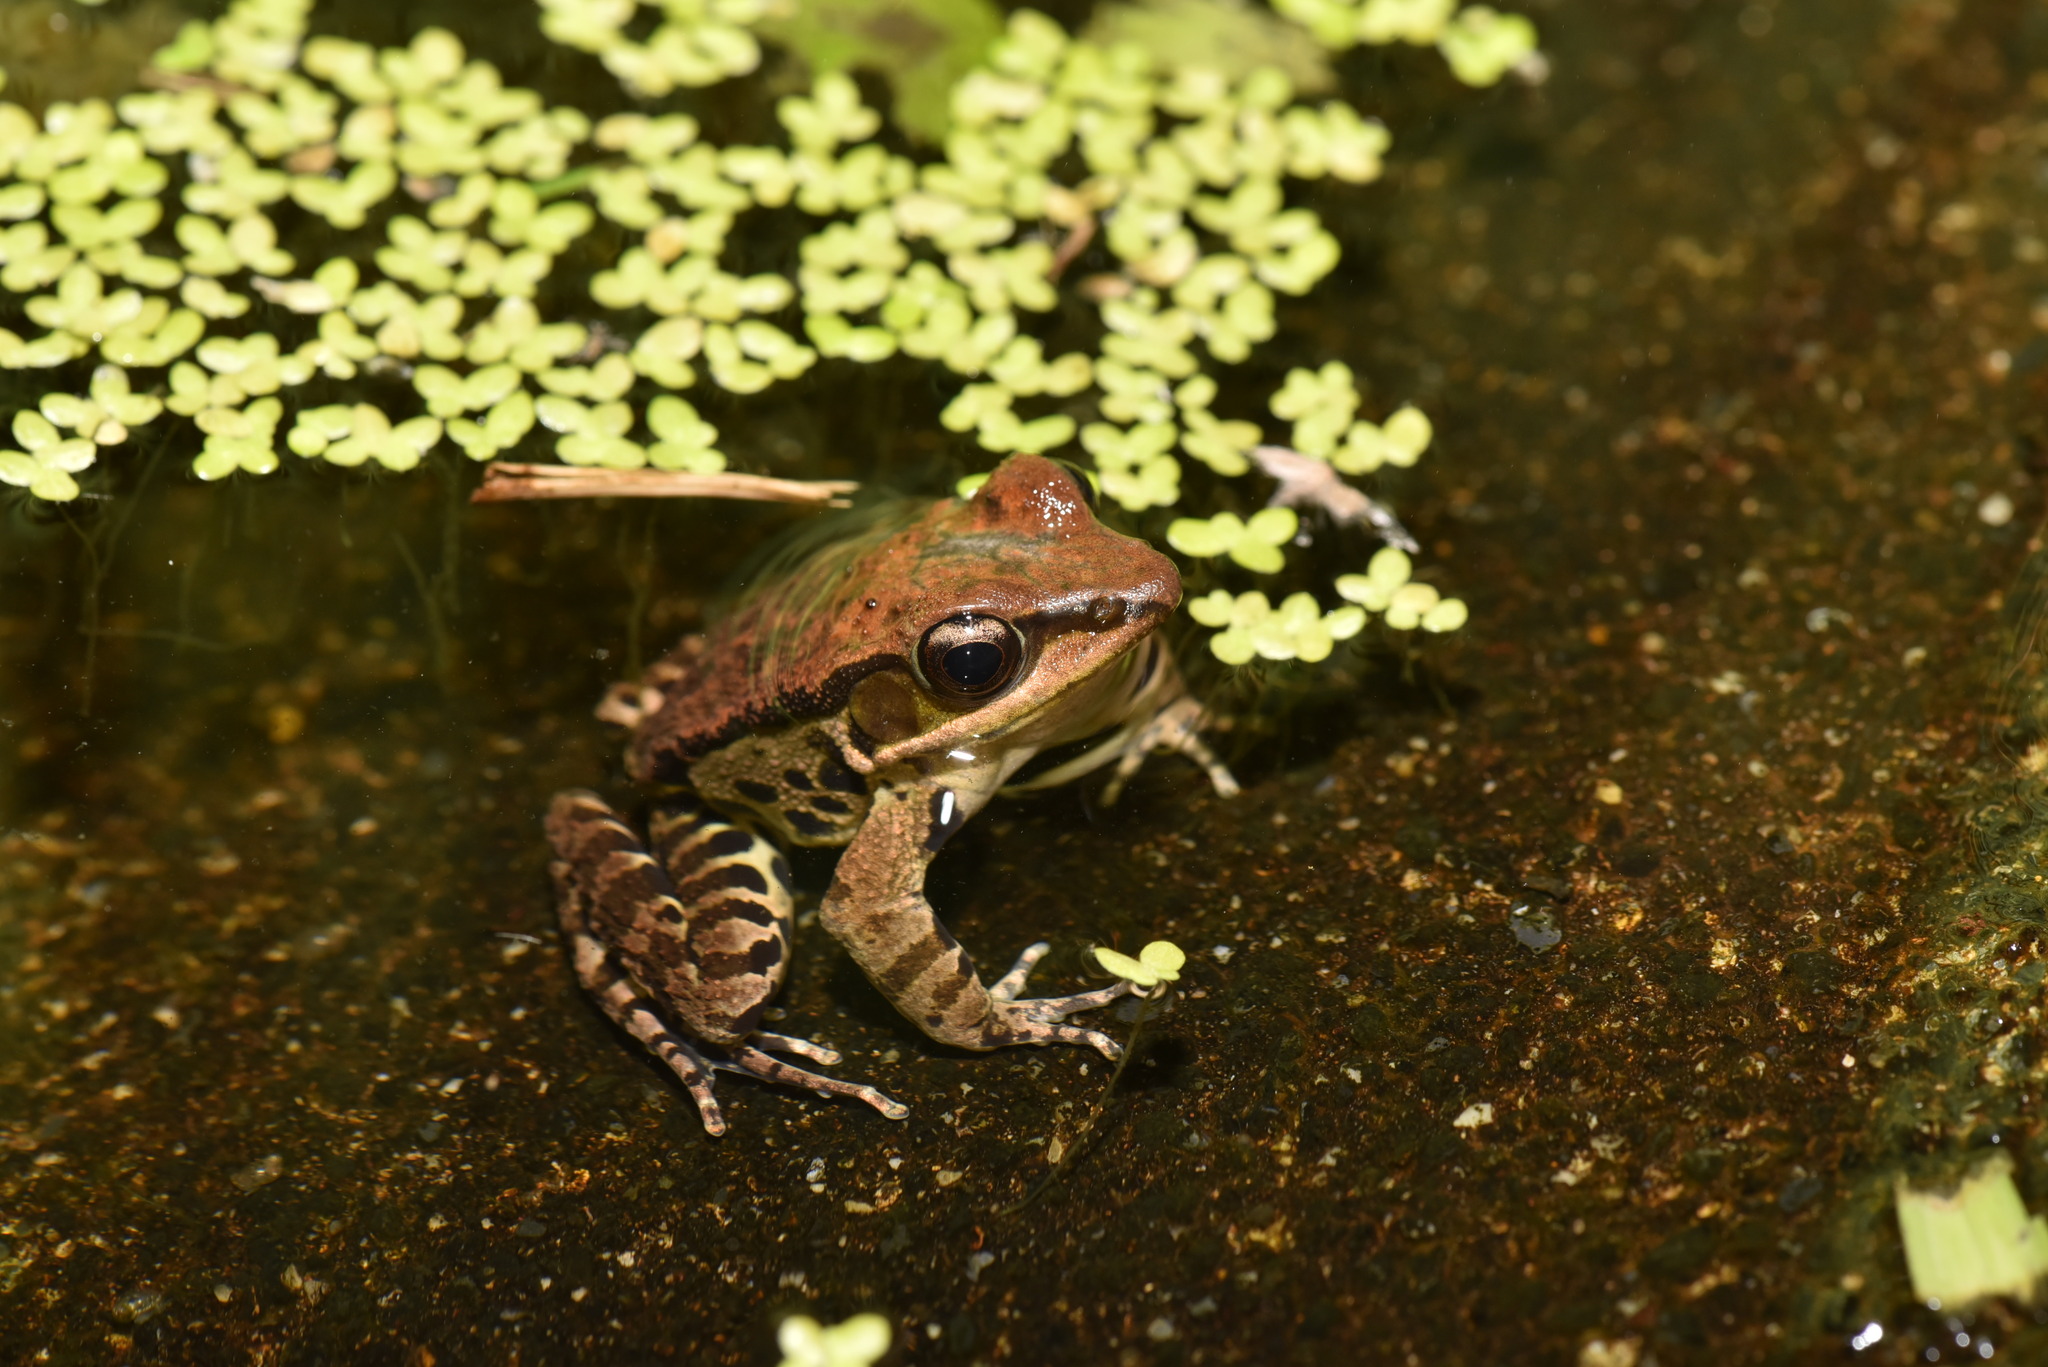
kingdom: Animalia
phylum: Chordata
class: Amphibia
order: Anura
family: Ranidae
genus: Hylarana
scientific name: Hylarana latouchii
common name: Broad-folded frog
